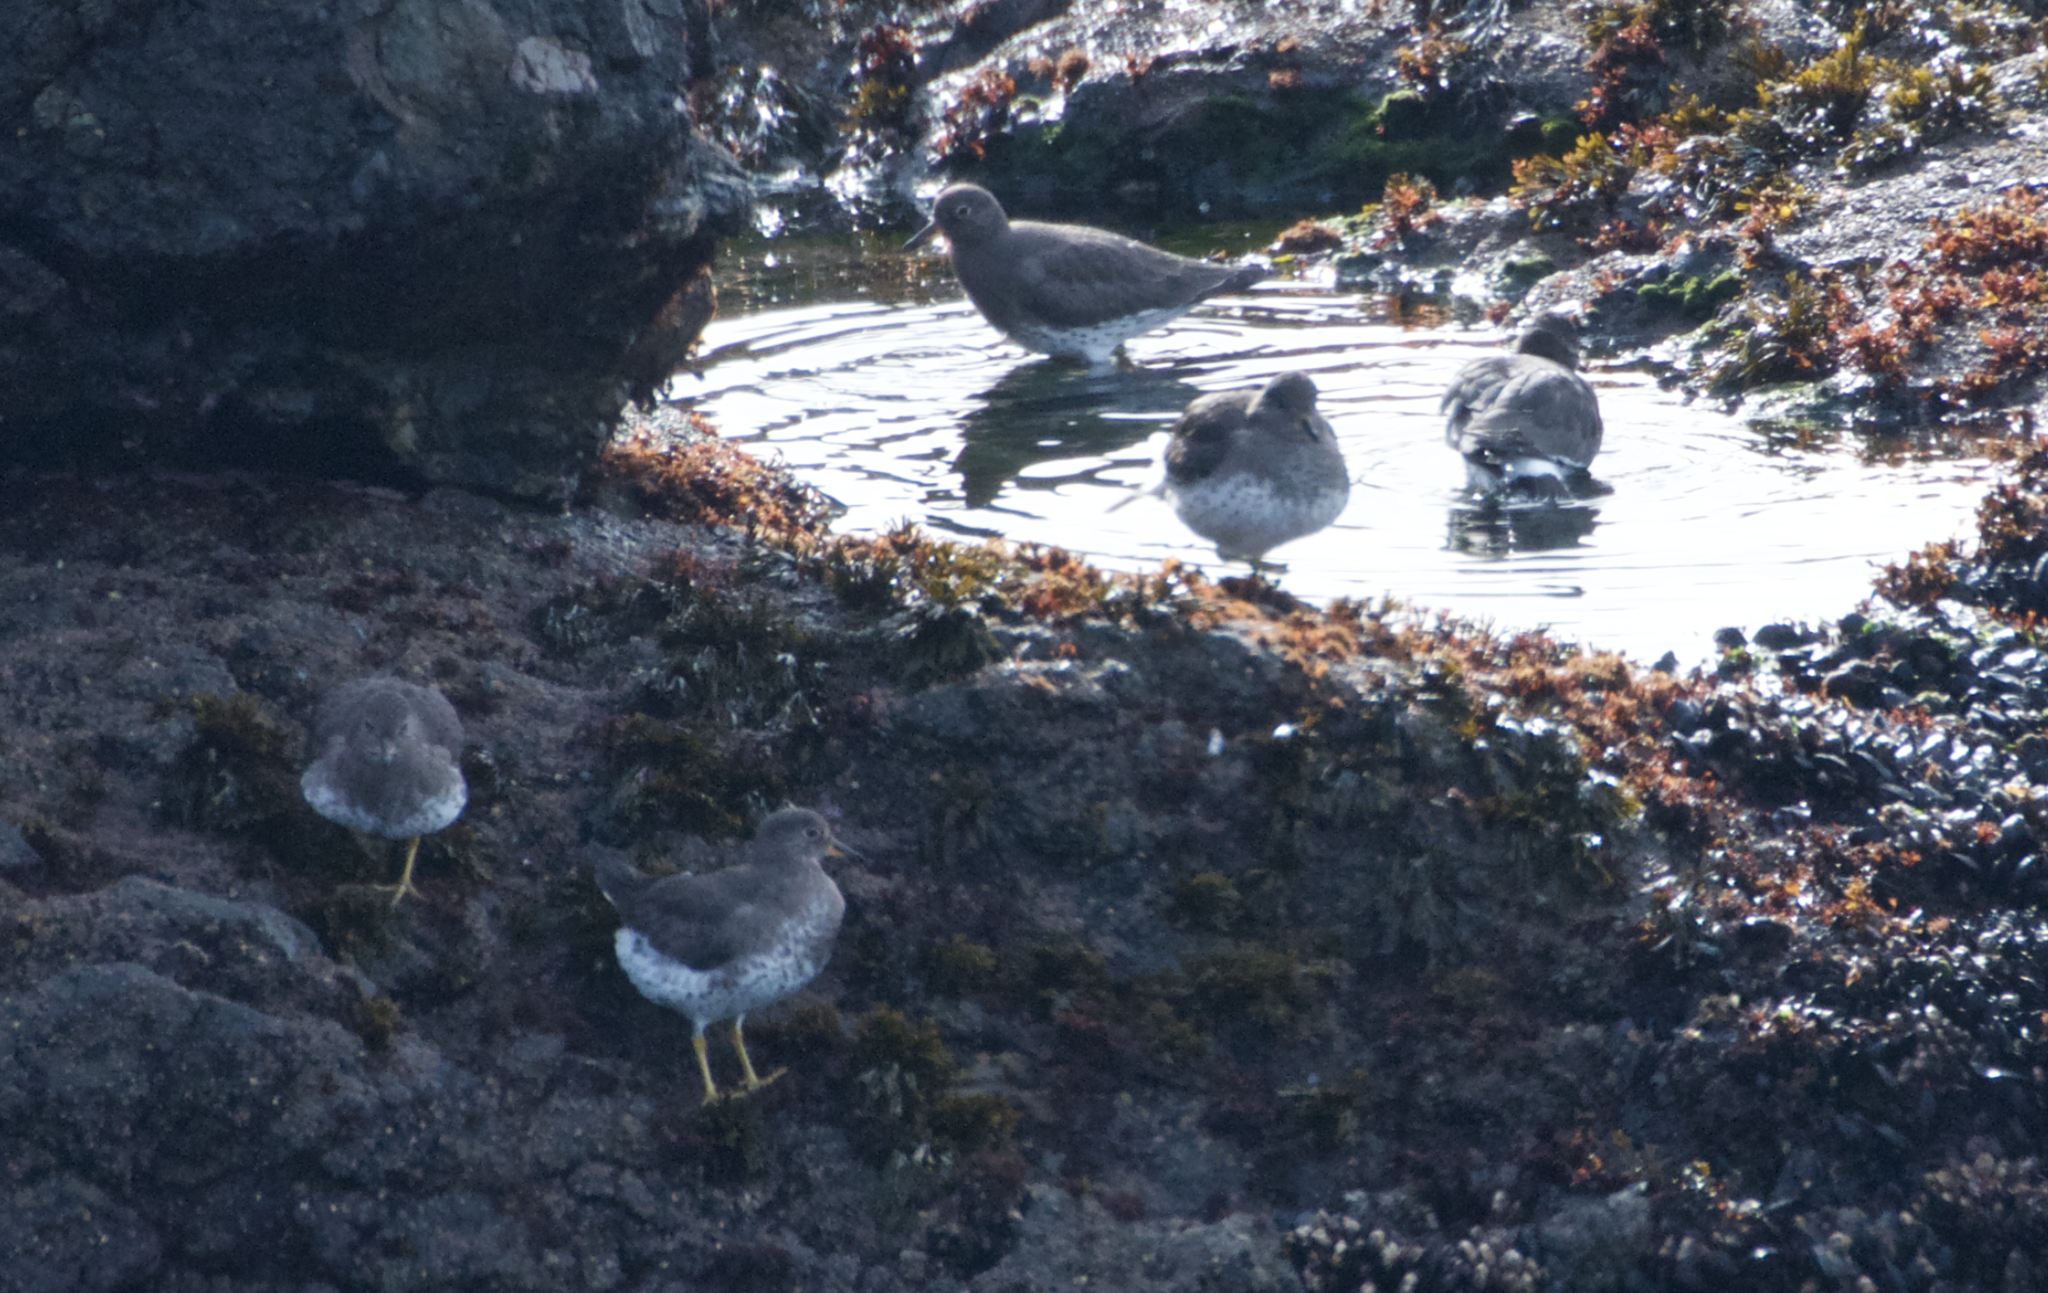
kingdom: Animalia
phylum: Chordata
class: Aves
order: Charadriiformes
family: Scolopacidae
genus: Calidris
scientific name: Calidris virgata
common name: Surfbird
